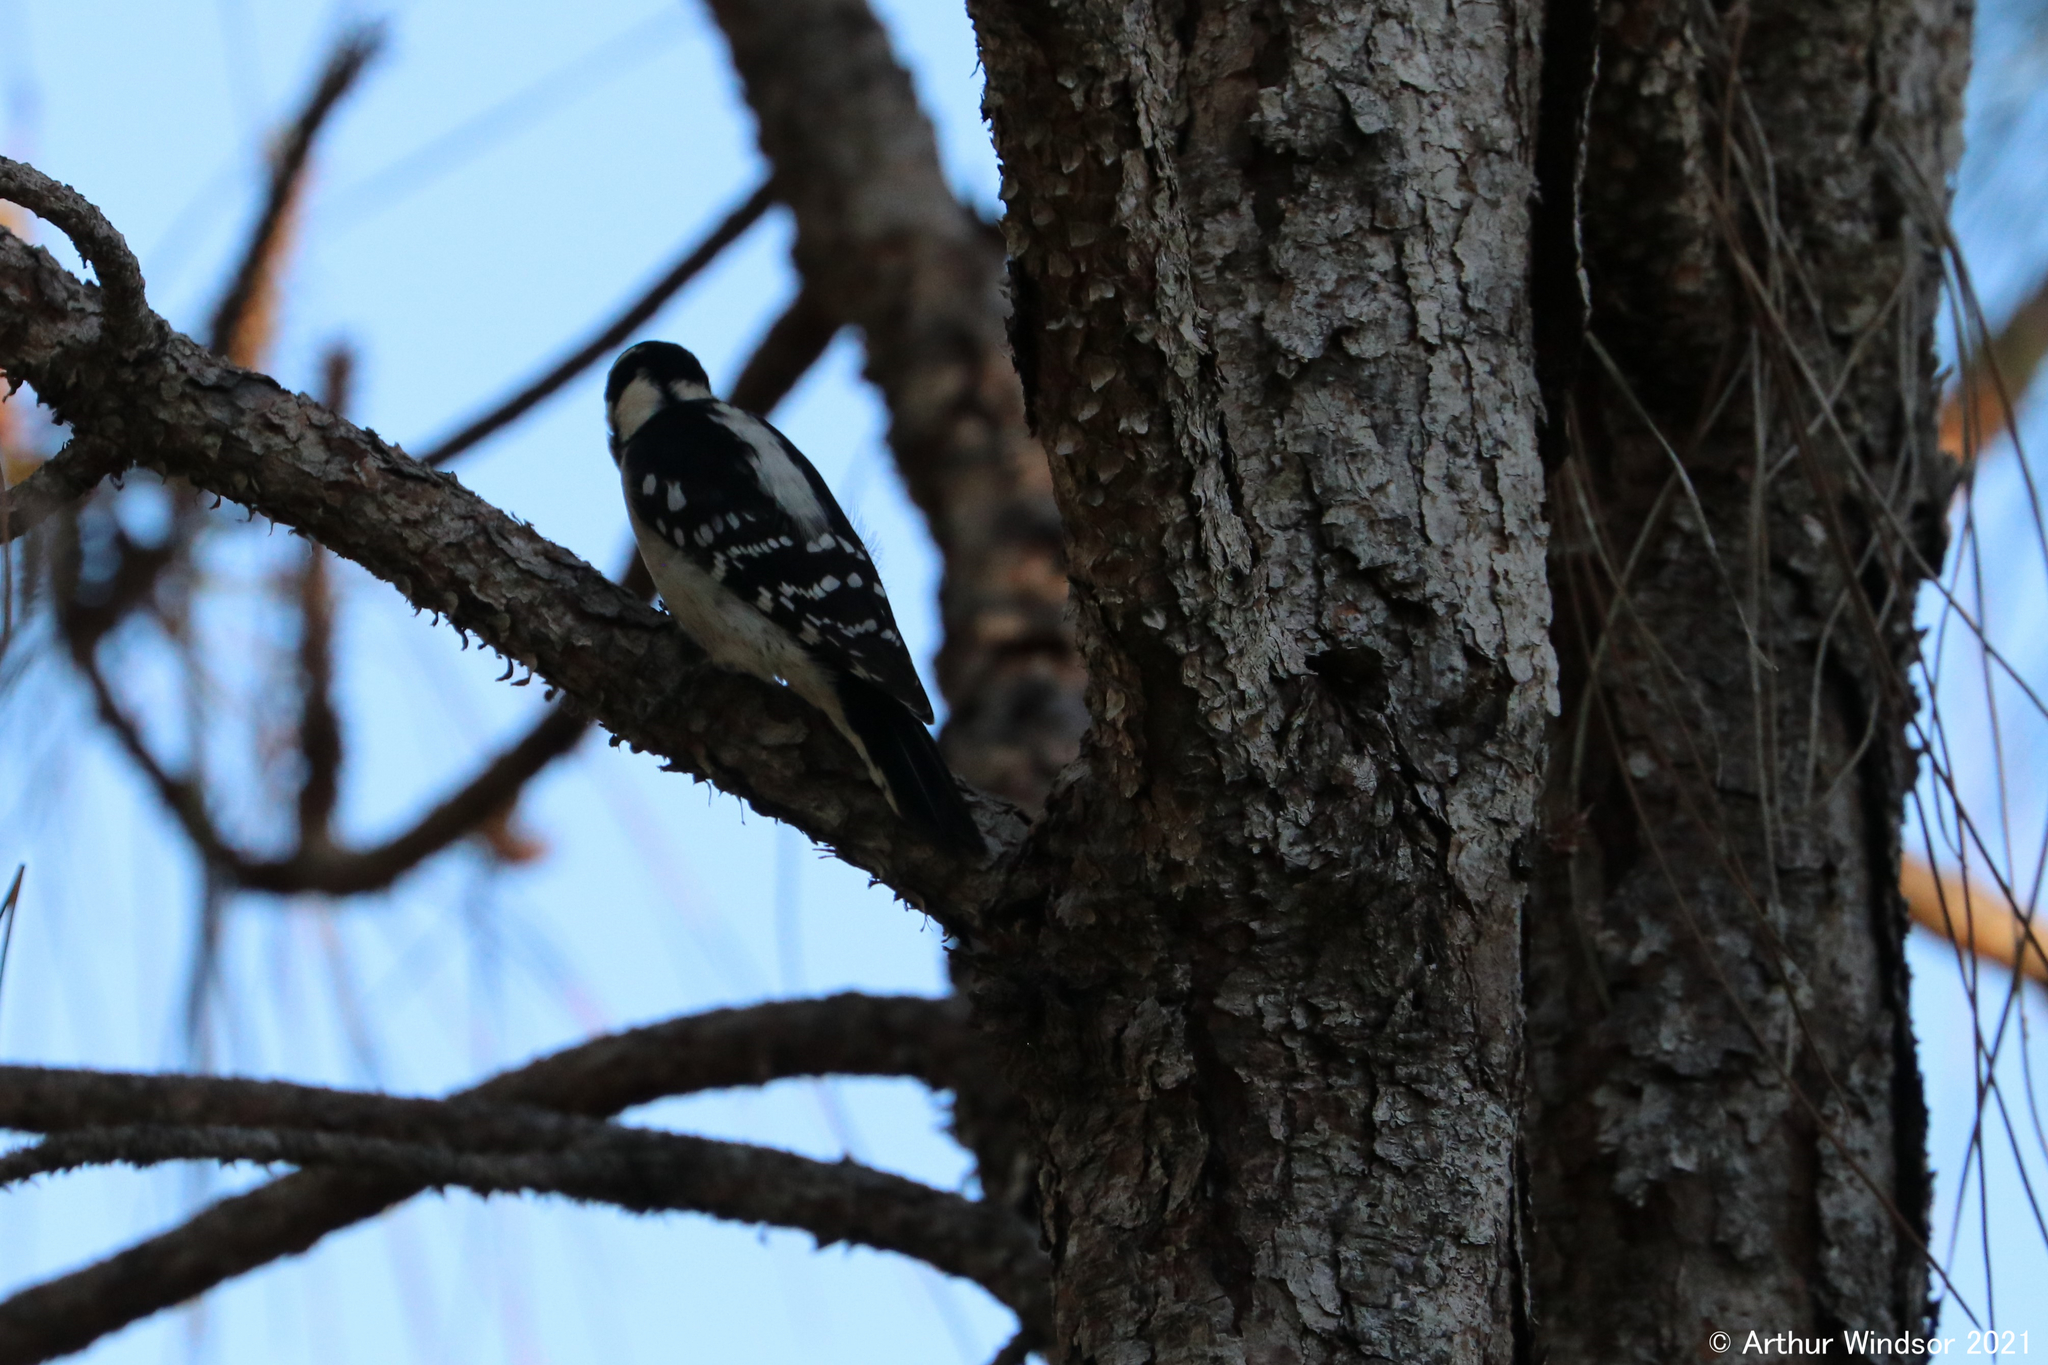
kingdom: Animalia
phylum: Chordata
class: Aves
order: Piciformes
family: Picidae
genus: Dryobates
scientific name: Dryobates pubescens
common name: Downy woodpecker
